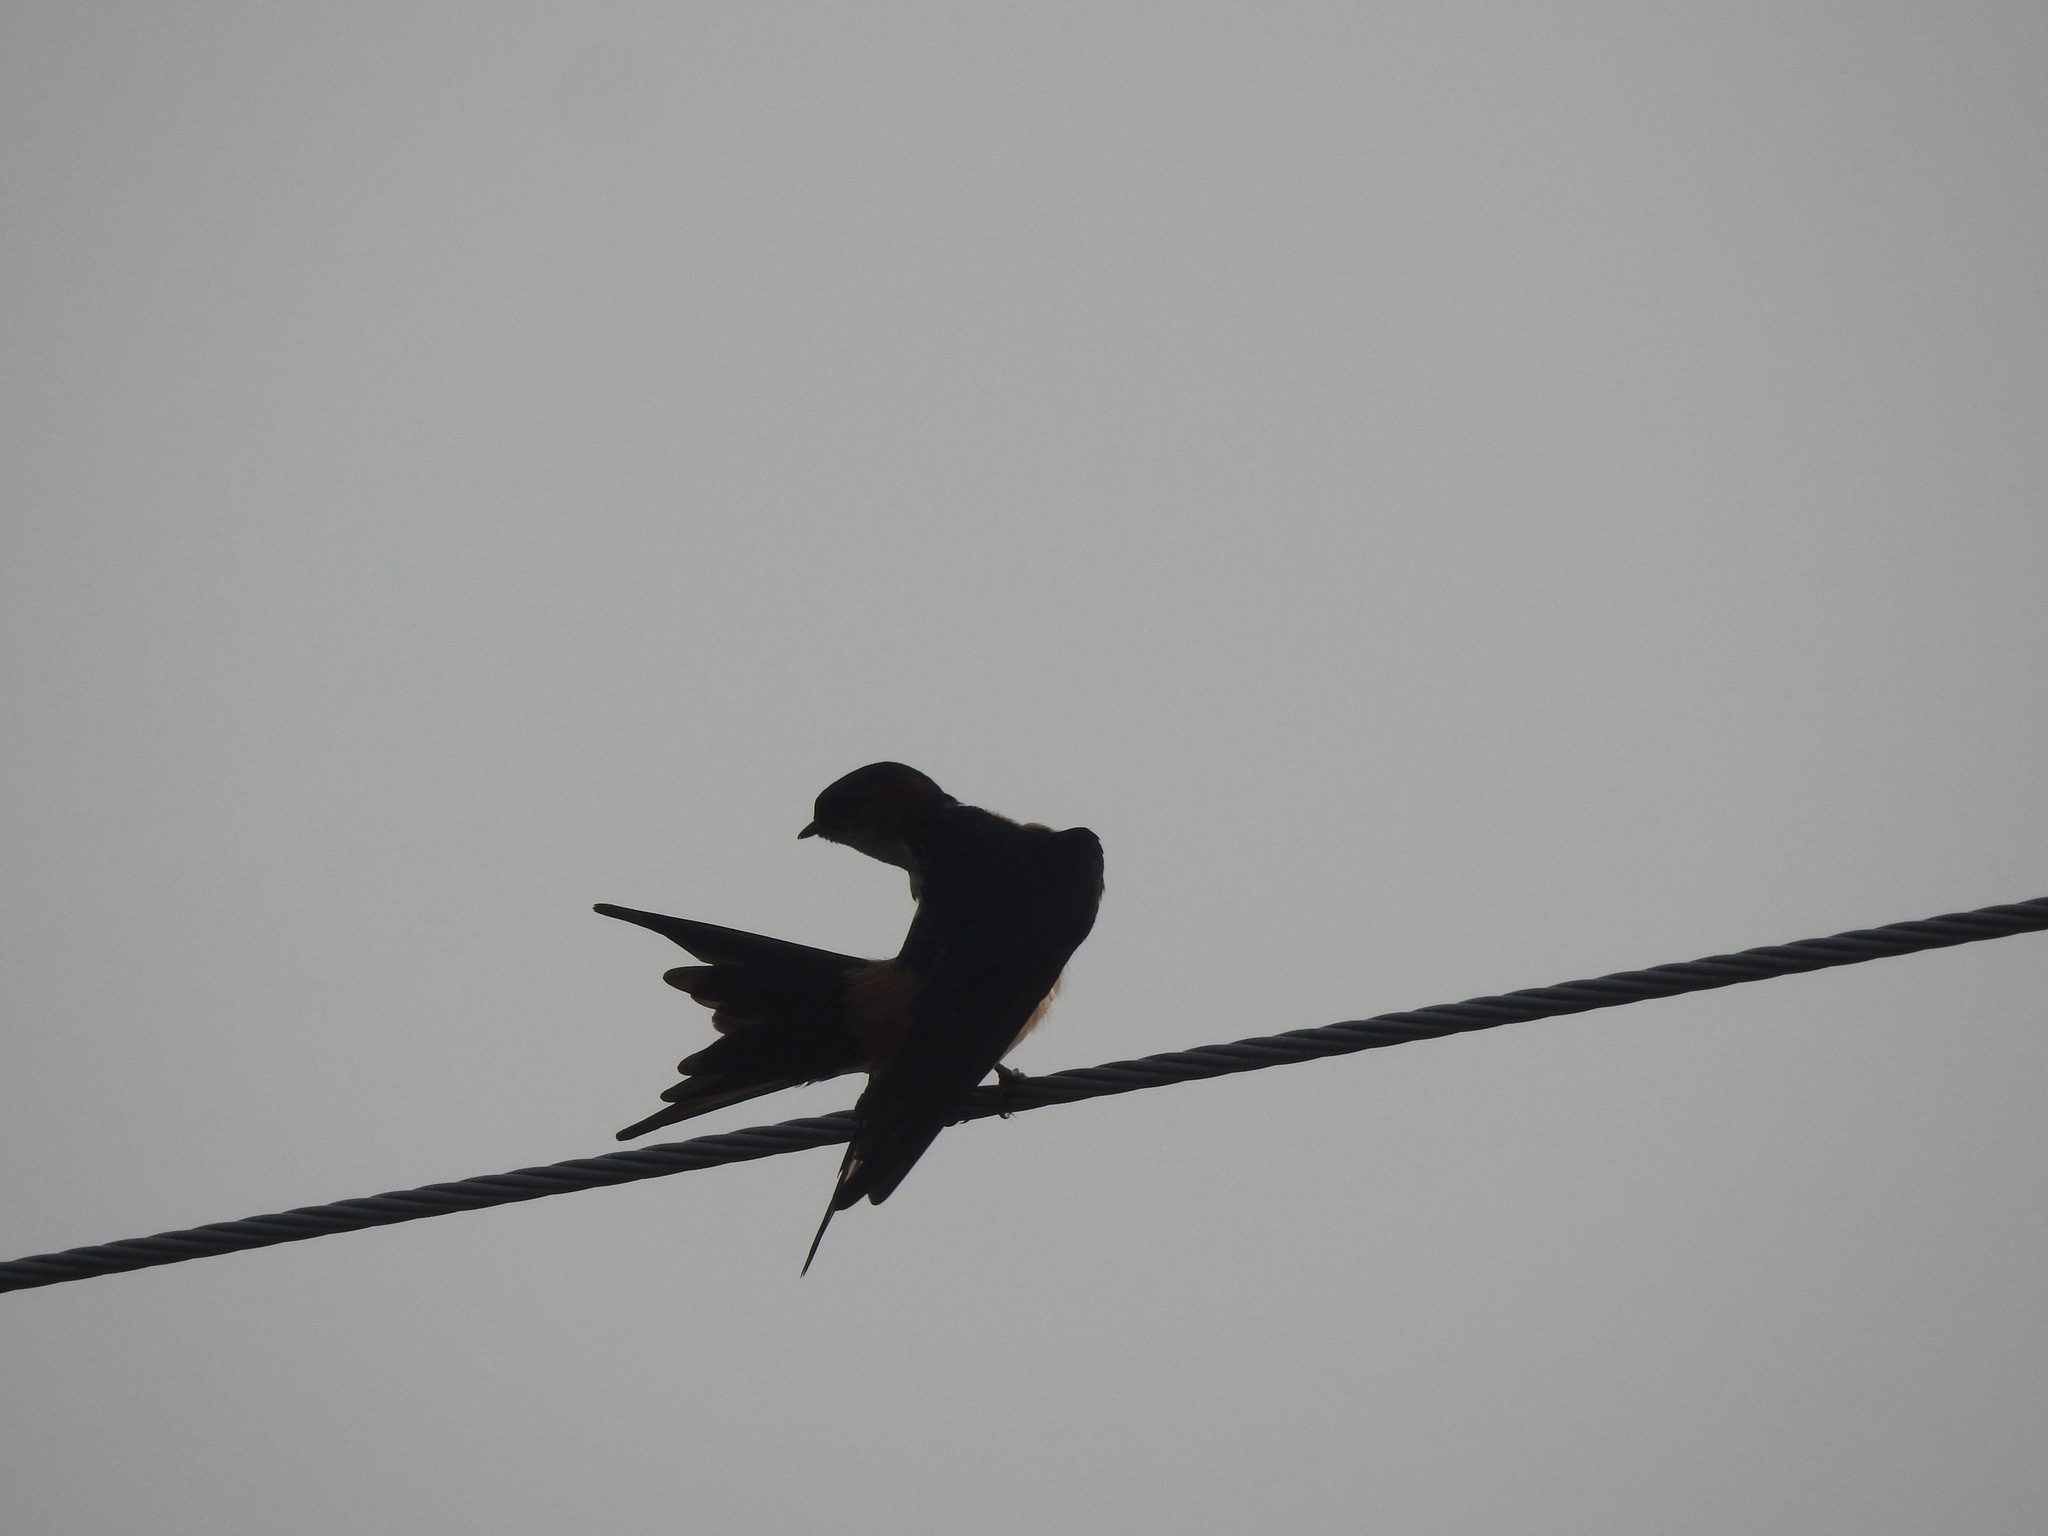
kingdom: Animalia
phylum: Chordata
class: Aves
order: Passeriformes
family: Hirundinidae
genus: Cecropis
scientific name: Cecropis daurica
